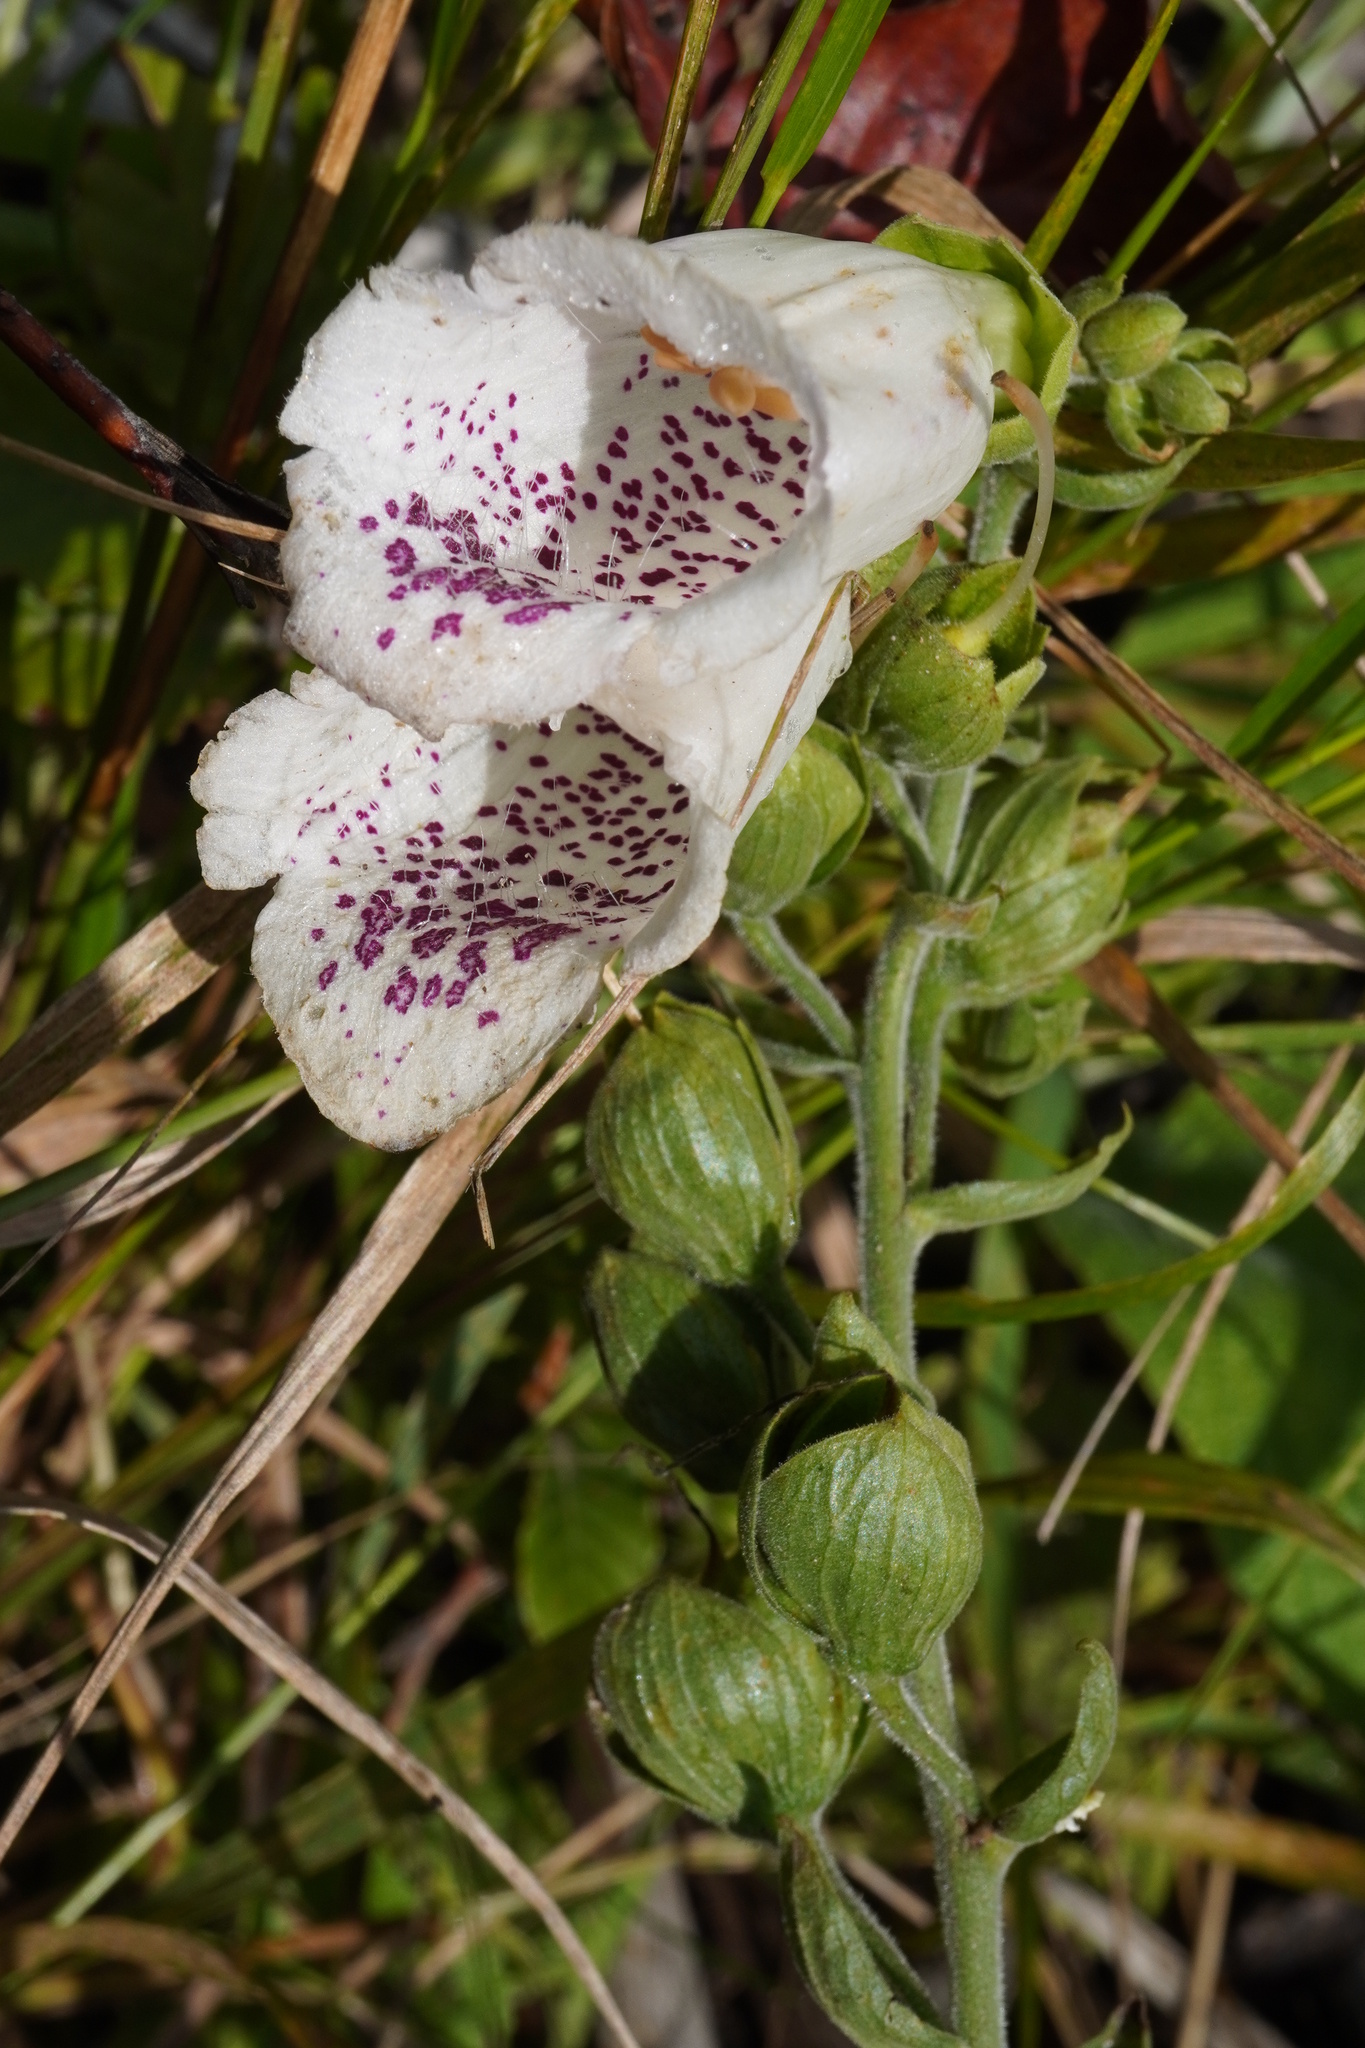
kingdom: Plantae
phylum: Tracheophyta
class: Magnoliopsida
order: Lamiales
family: Plantaginaceae
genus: Digitalis
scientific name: Digitalis purpurea
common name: Foxglove
